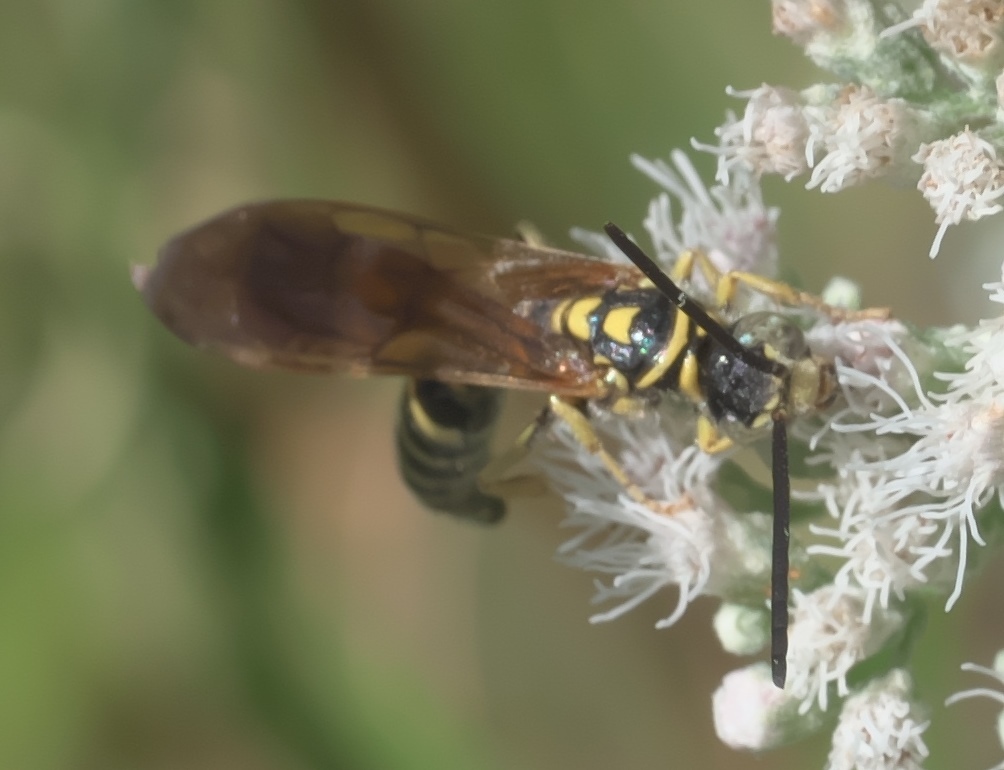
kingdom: Animalia
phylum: Arthropoda
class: Insecta
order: Hymenoptera
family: Tiphiidae
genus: Myzinum
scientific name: Myzinum quinquecinctum
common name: Five-banded thynnid wasp
